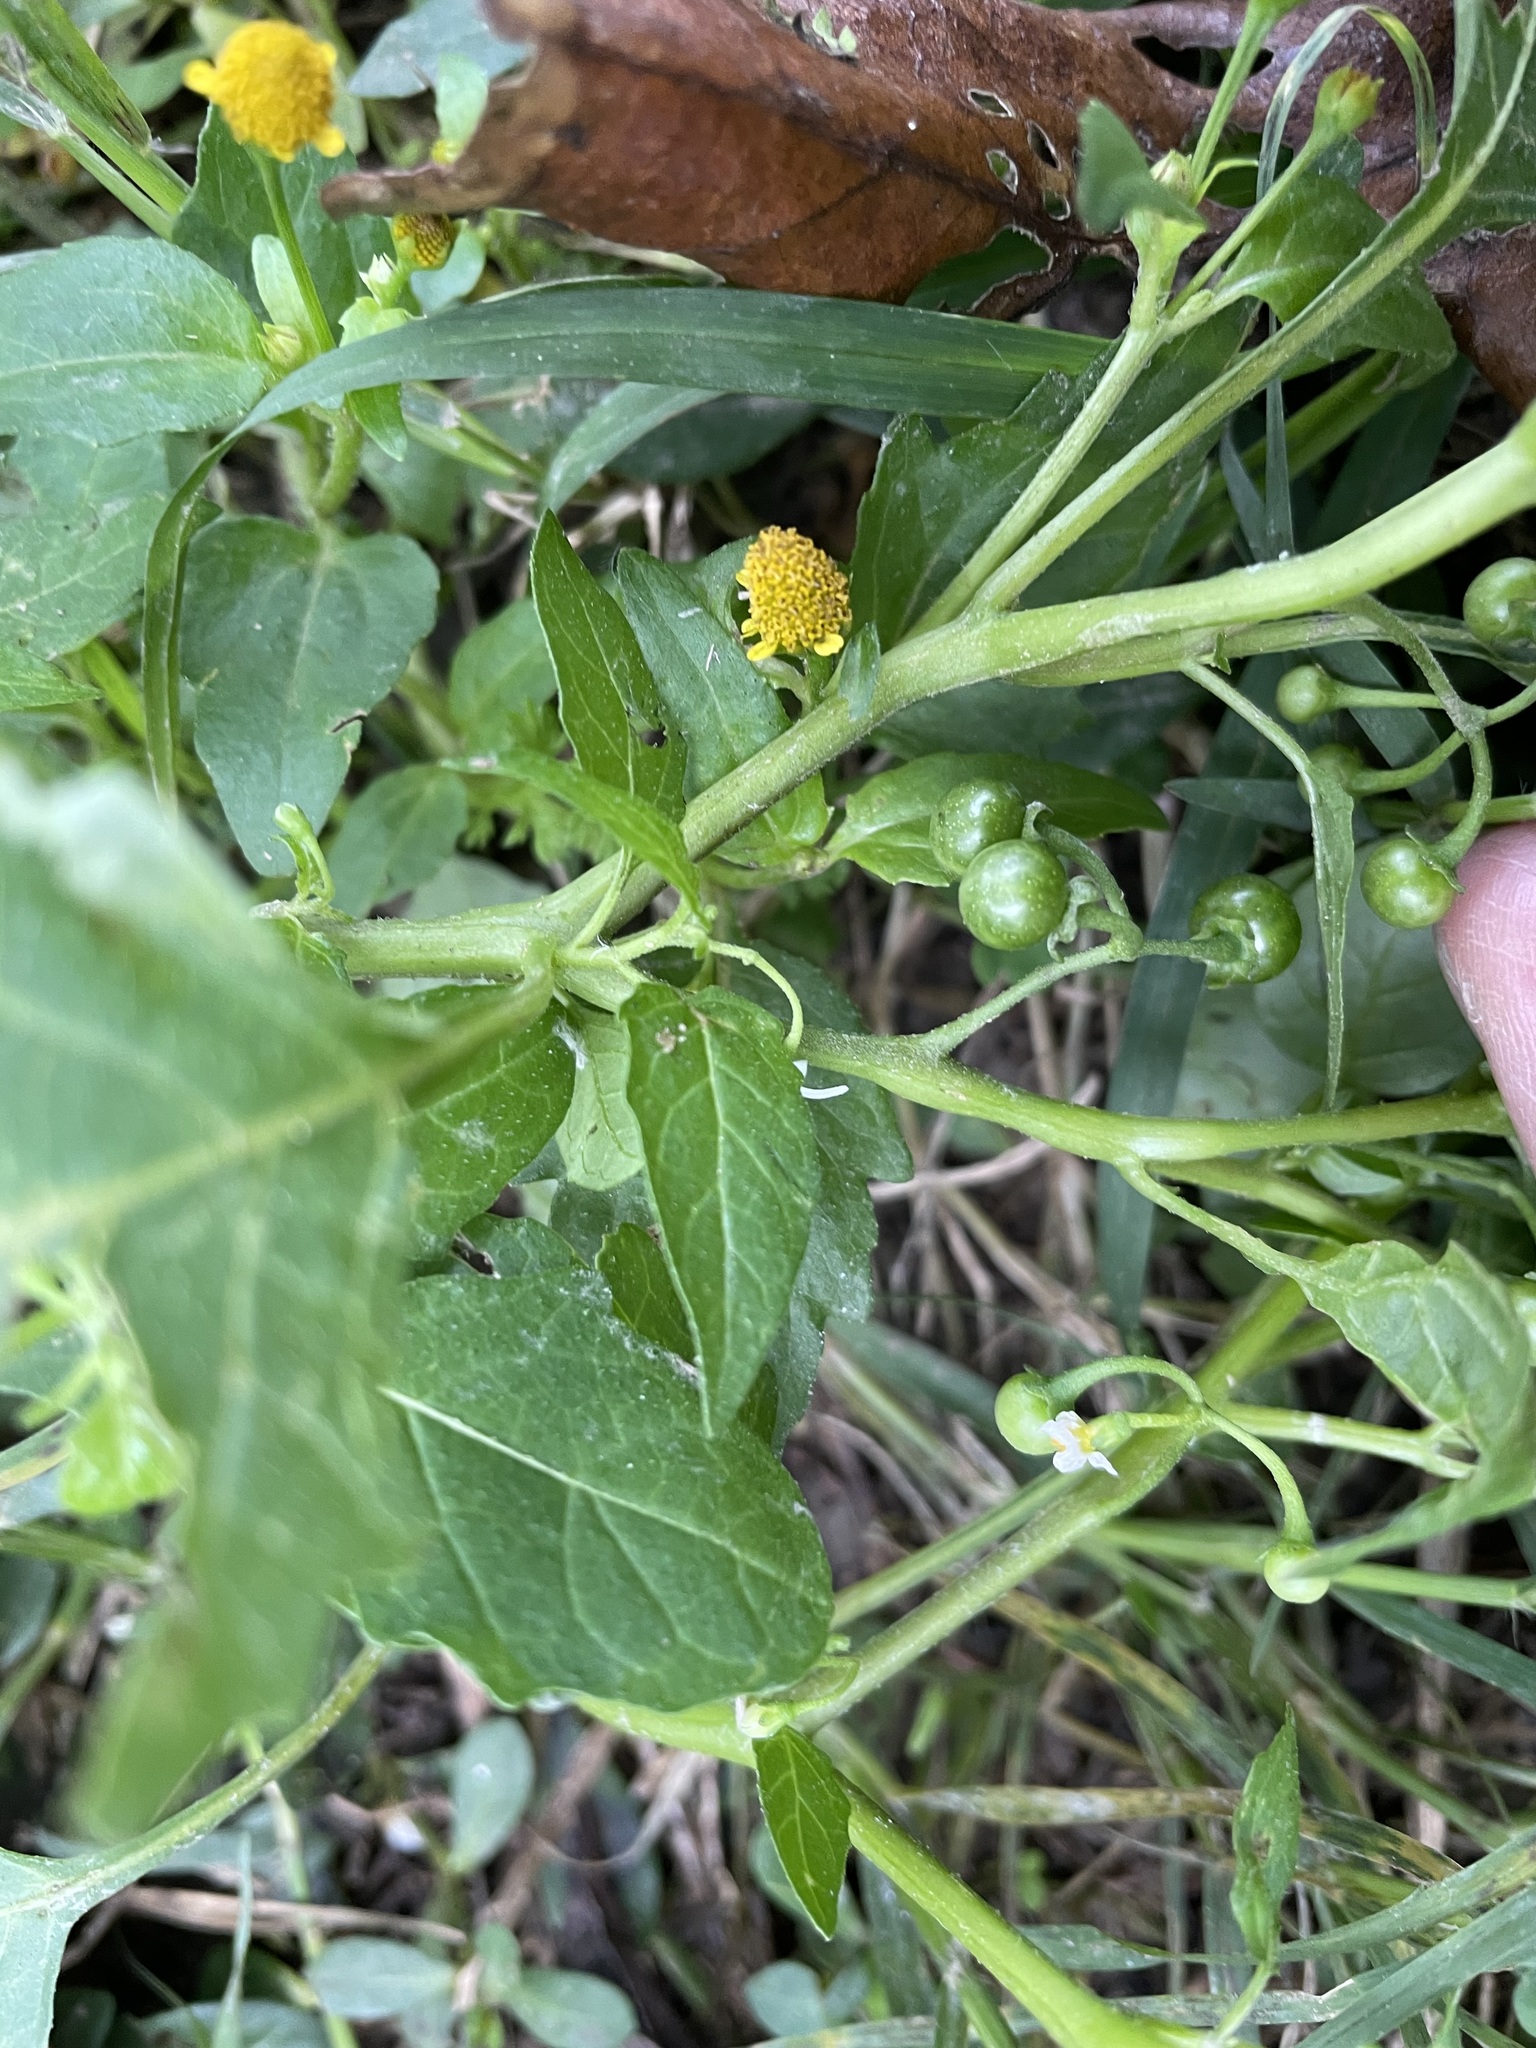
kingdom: Plantae
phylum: Tracheophyta
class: Magnoliopsida
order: Solanales
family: Solanaceae
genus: Solanum
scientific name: Solanum americanum
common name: American black nightshade
